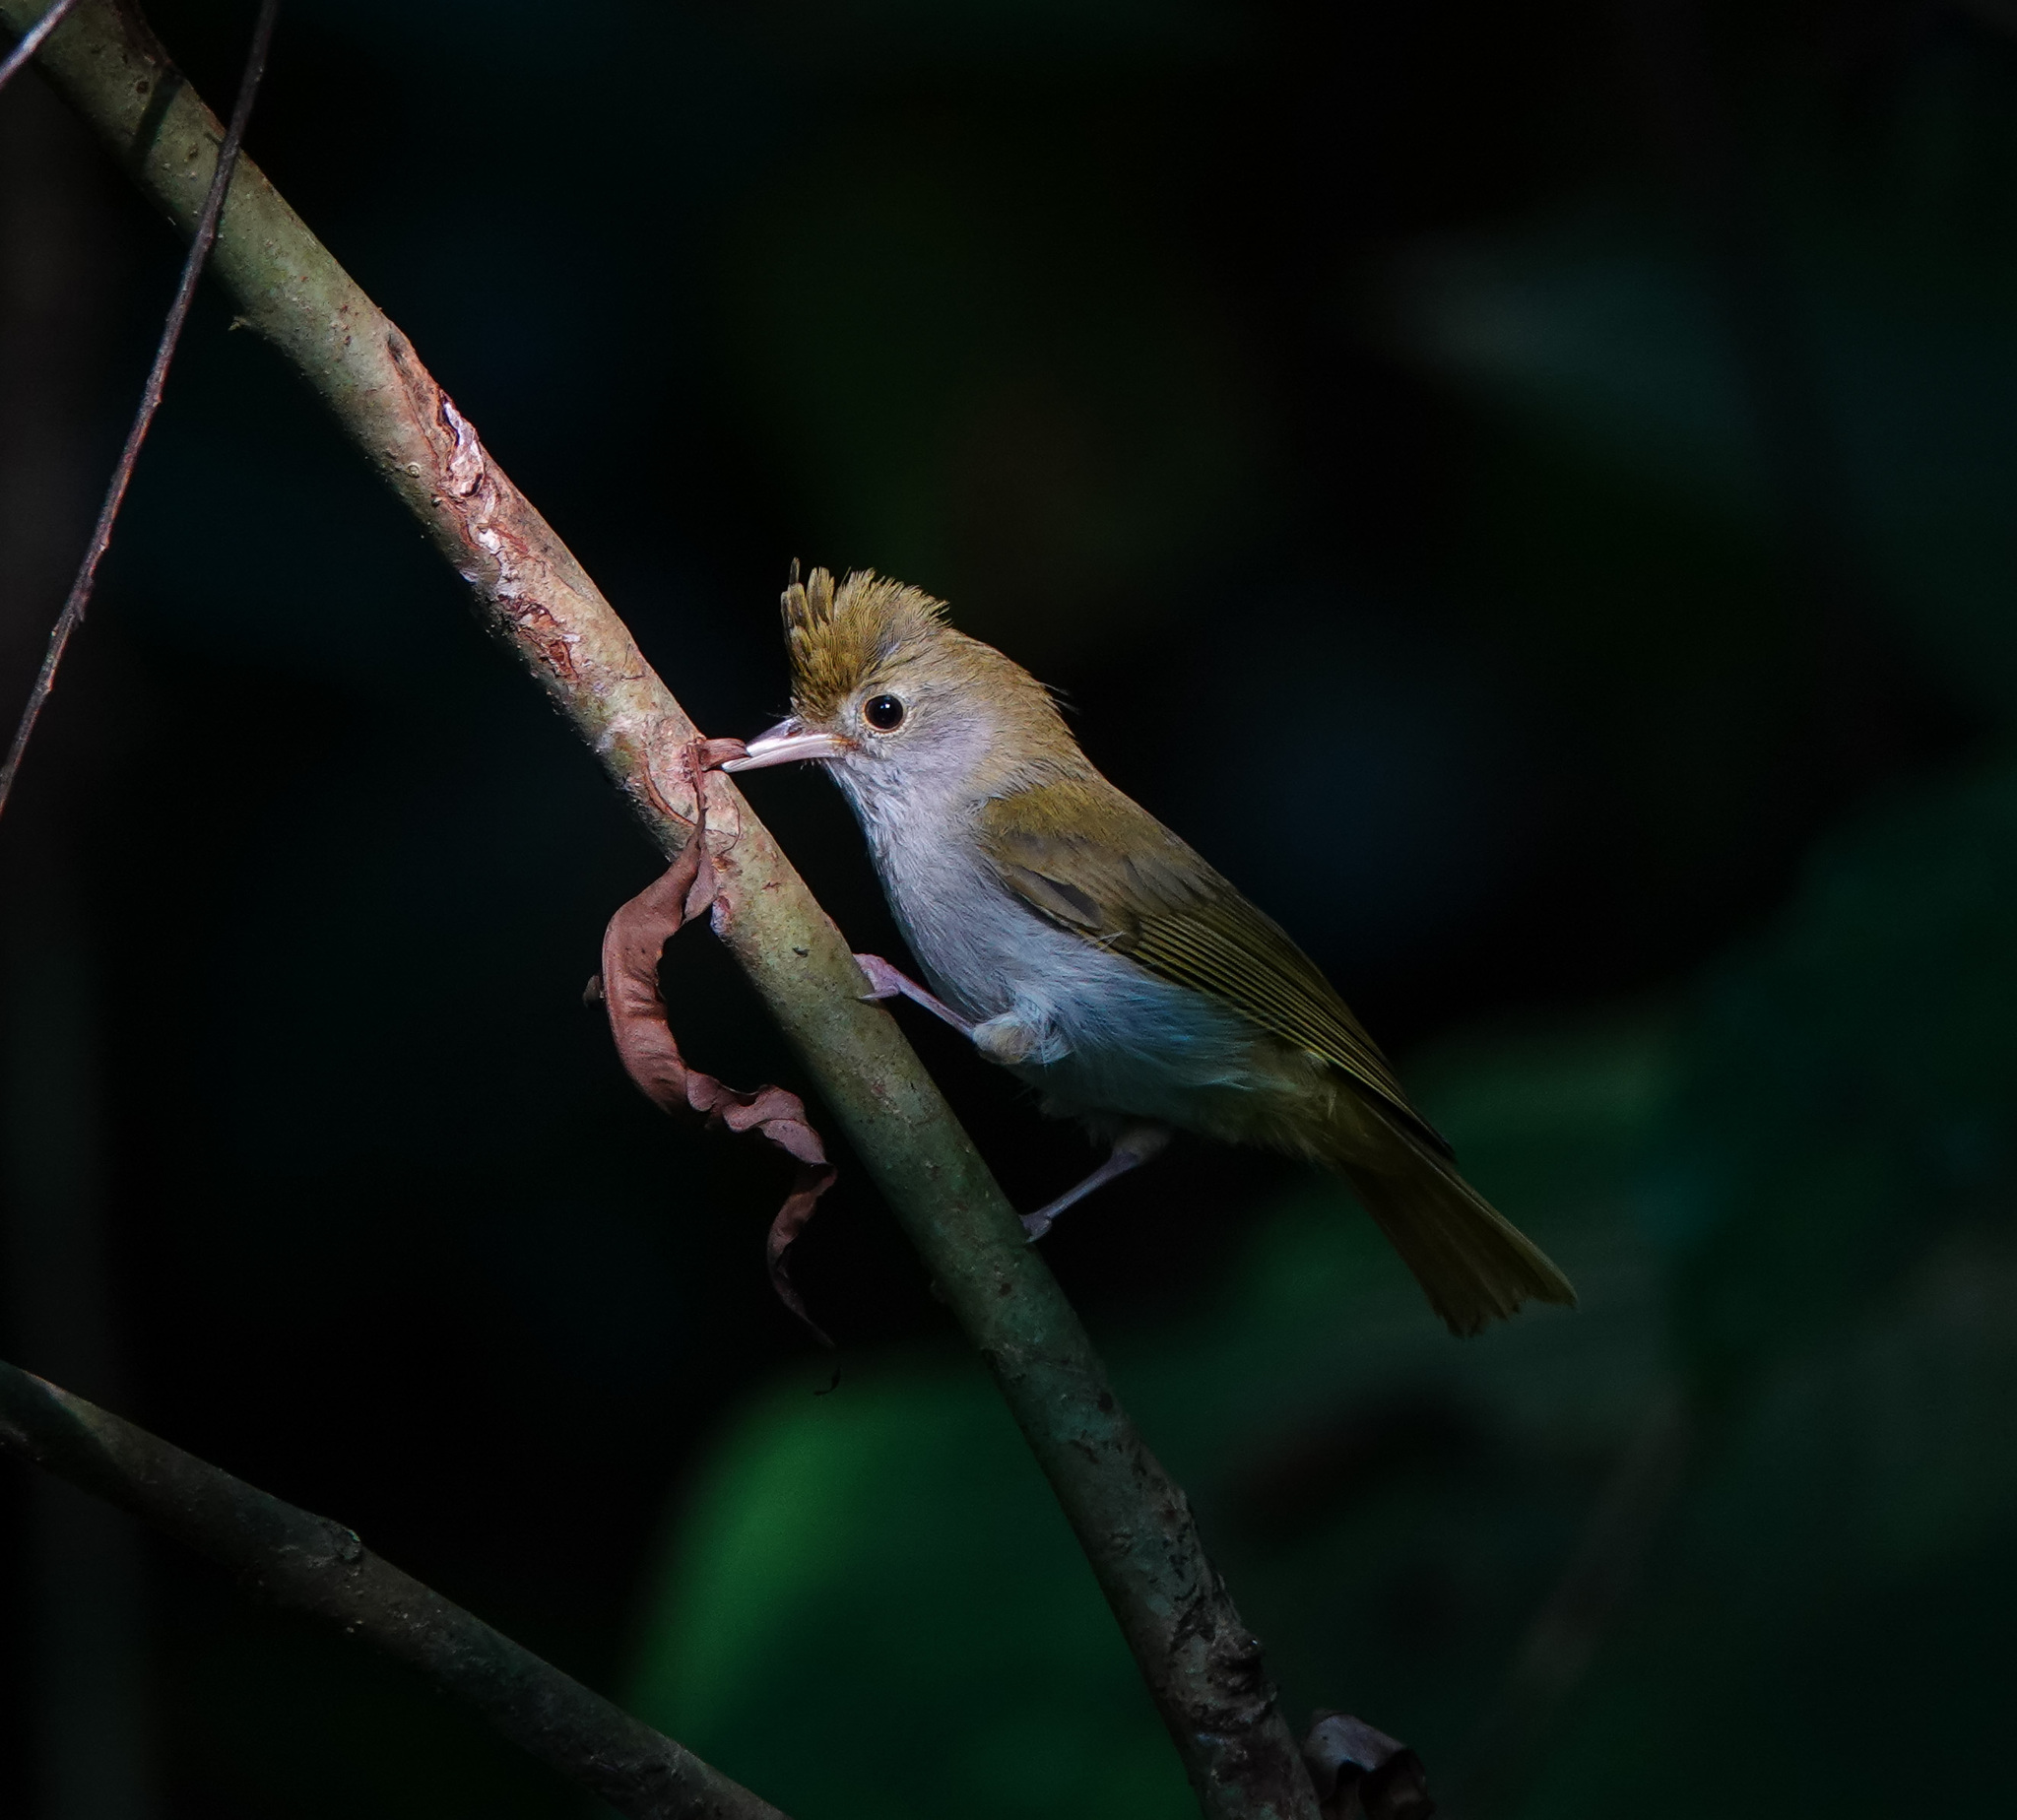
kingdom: Animalia
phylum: Chordata
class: Aves
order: Passeriformes
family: Vireonidae
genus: Erpornis
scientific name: Erpornis zantholeuca
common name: White-bellied erpornis
